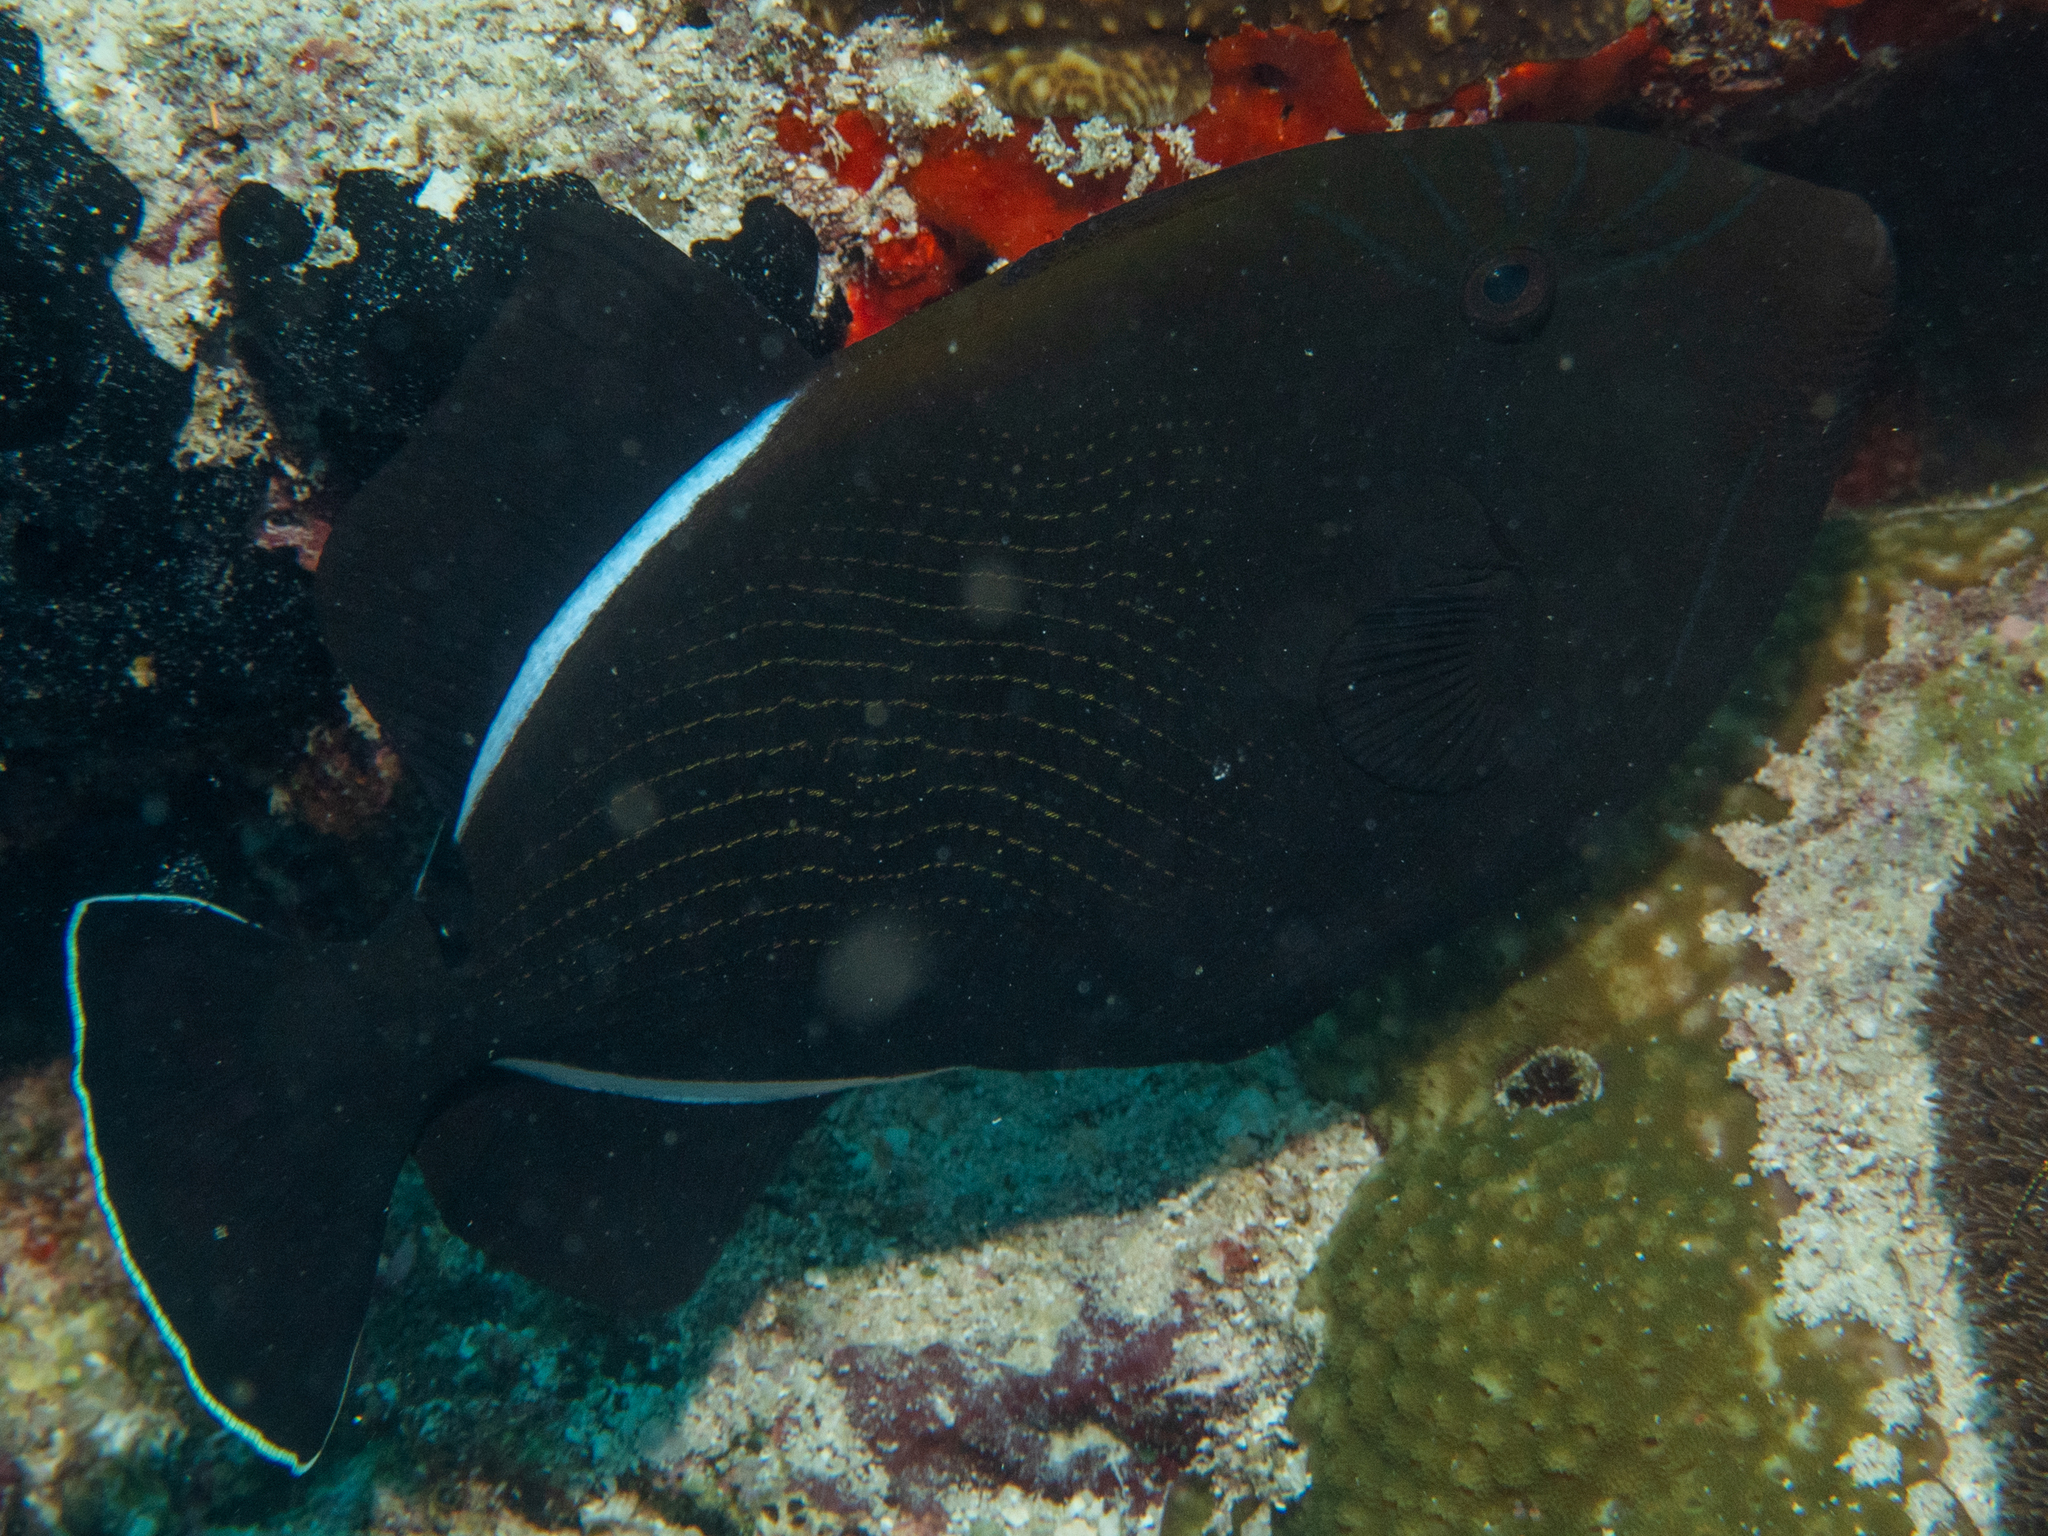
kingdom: Animalia
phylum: Chordata
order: Tetraodontiformes
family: Balistidae
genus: Melichthys
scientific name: Melichthys indicus
